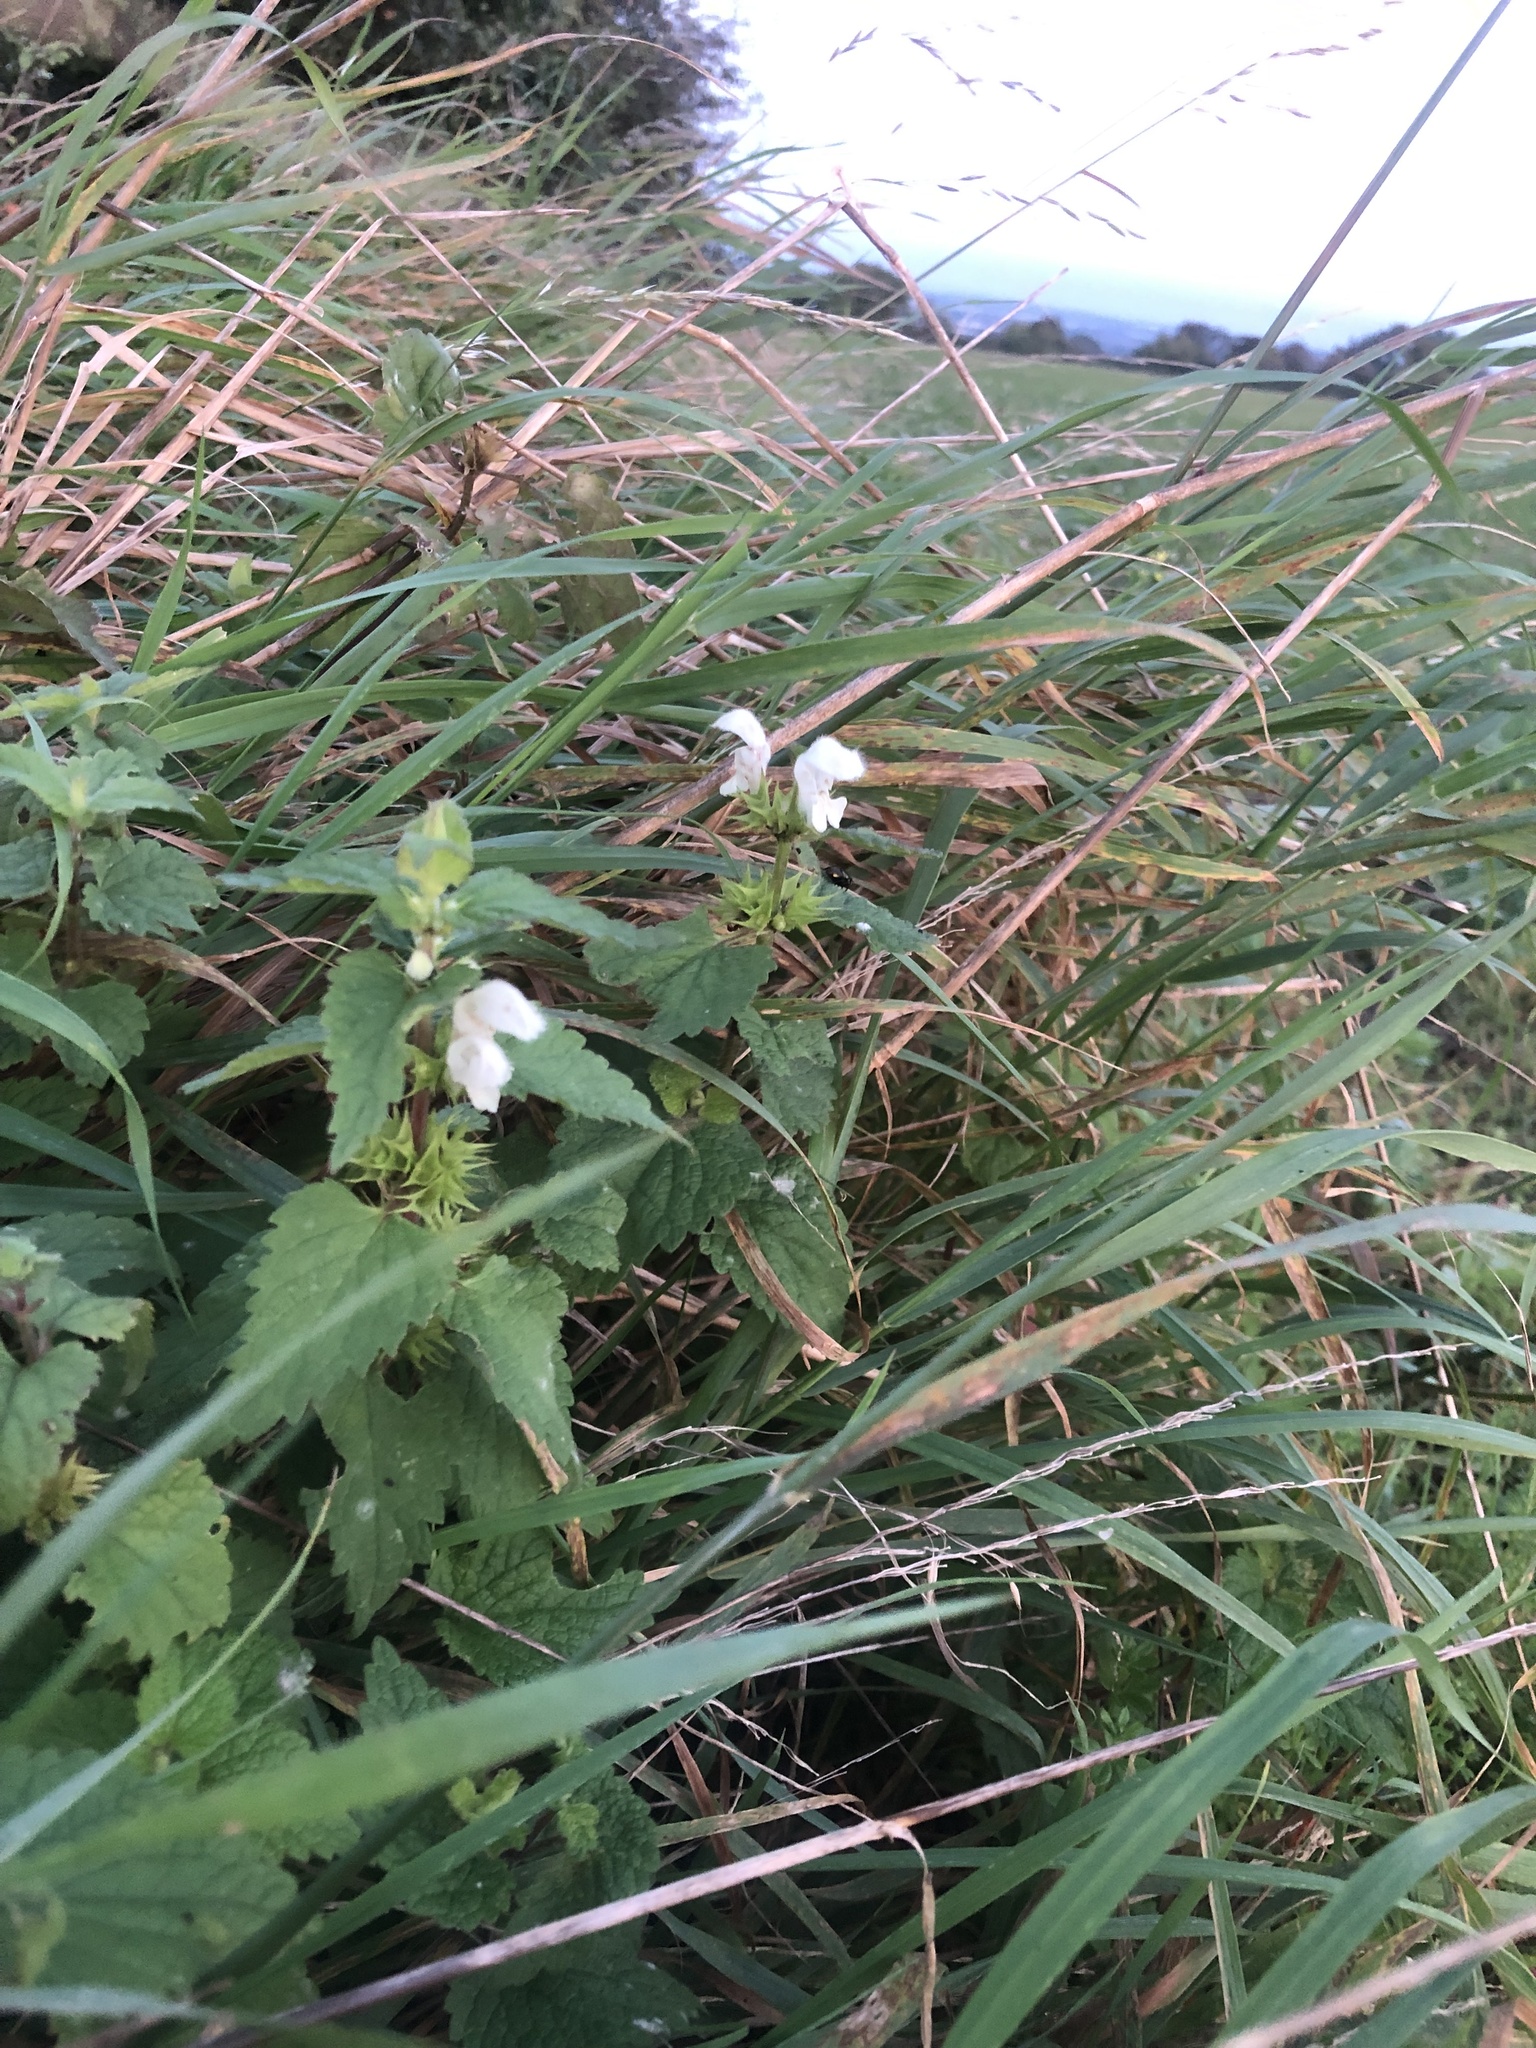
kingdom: Plantae
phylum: Tracheophyta
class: Magnoliopsida
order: Lamiales
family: Lamiaceae
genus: Lamium
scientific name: Lamium album
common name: White dead-nettle
